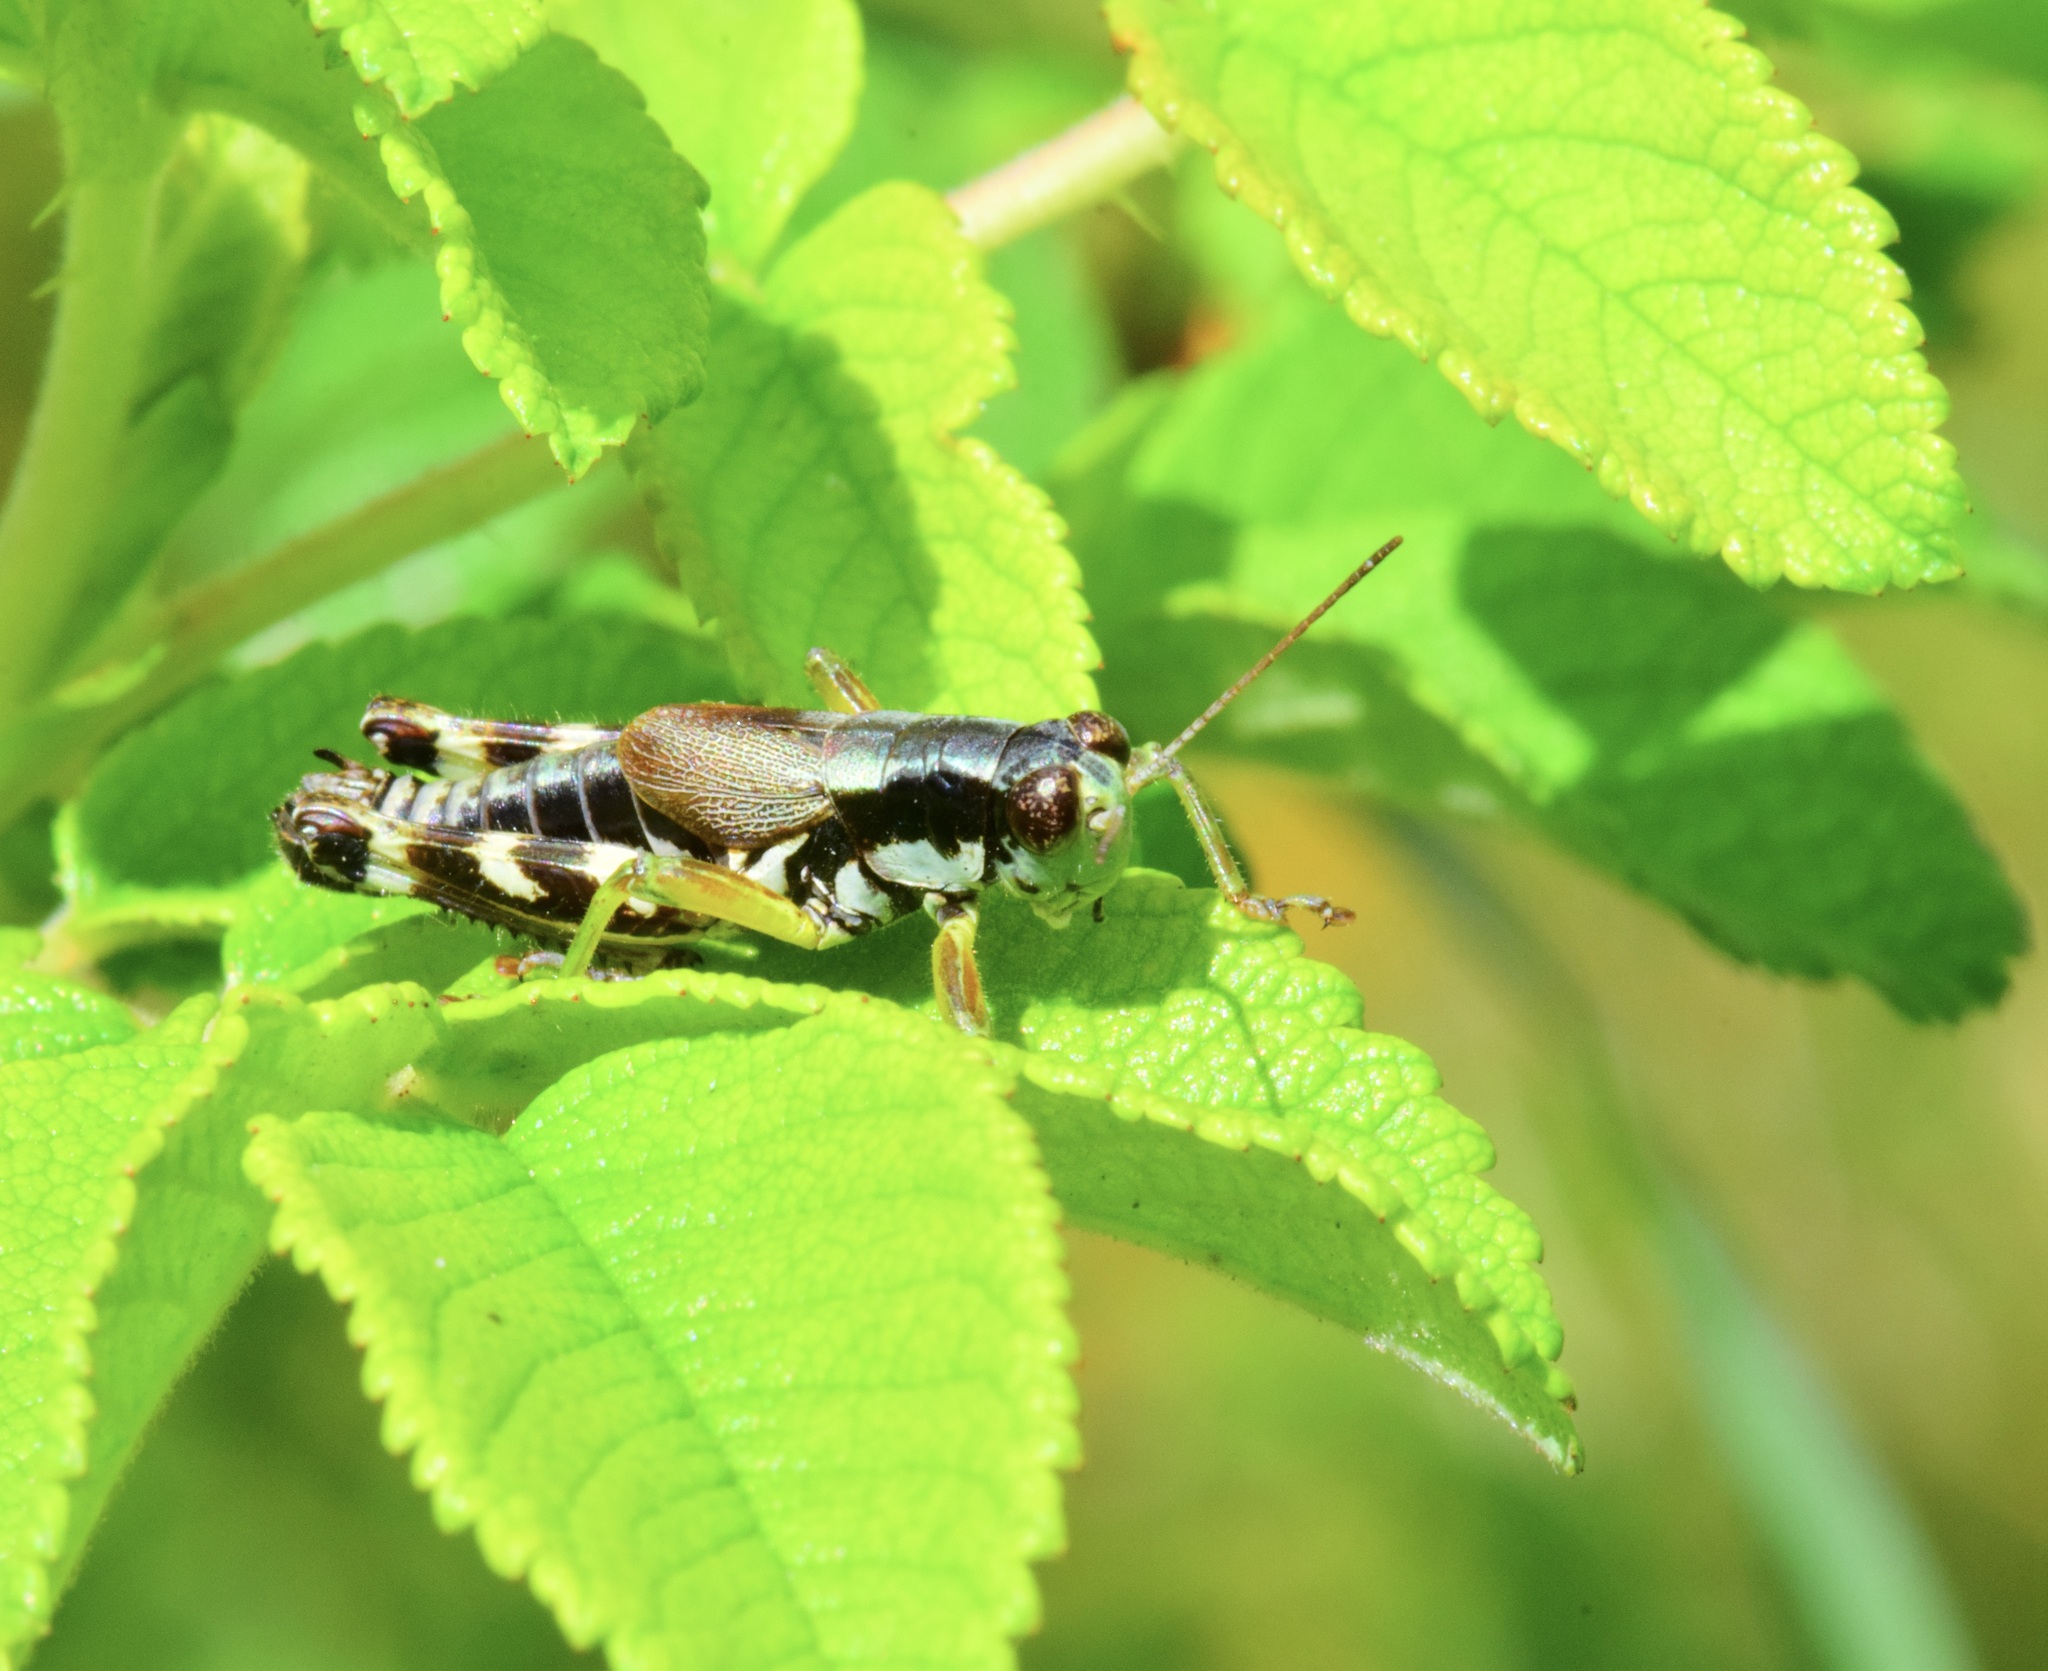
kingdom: Animalia
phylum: Arthropoda
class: Insecta
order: Orthoptera
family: Acrididae
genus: Melanoplus
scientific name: Melanoplus viridipes
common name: Green-legged locust
